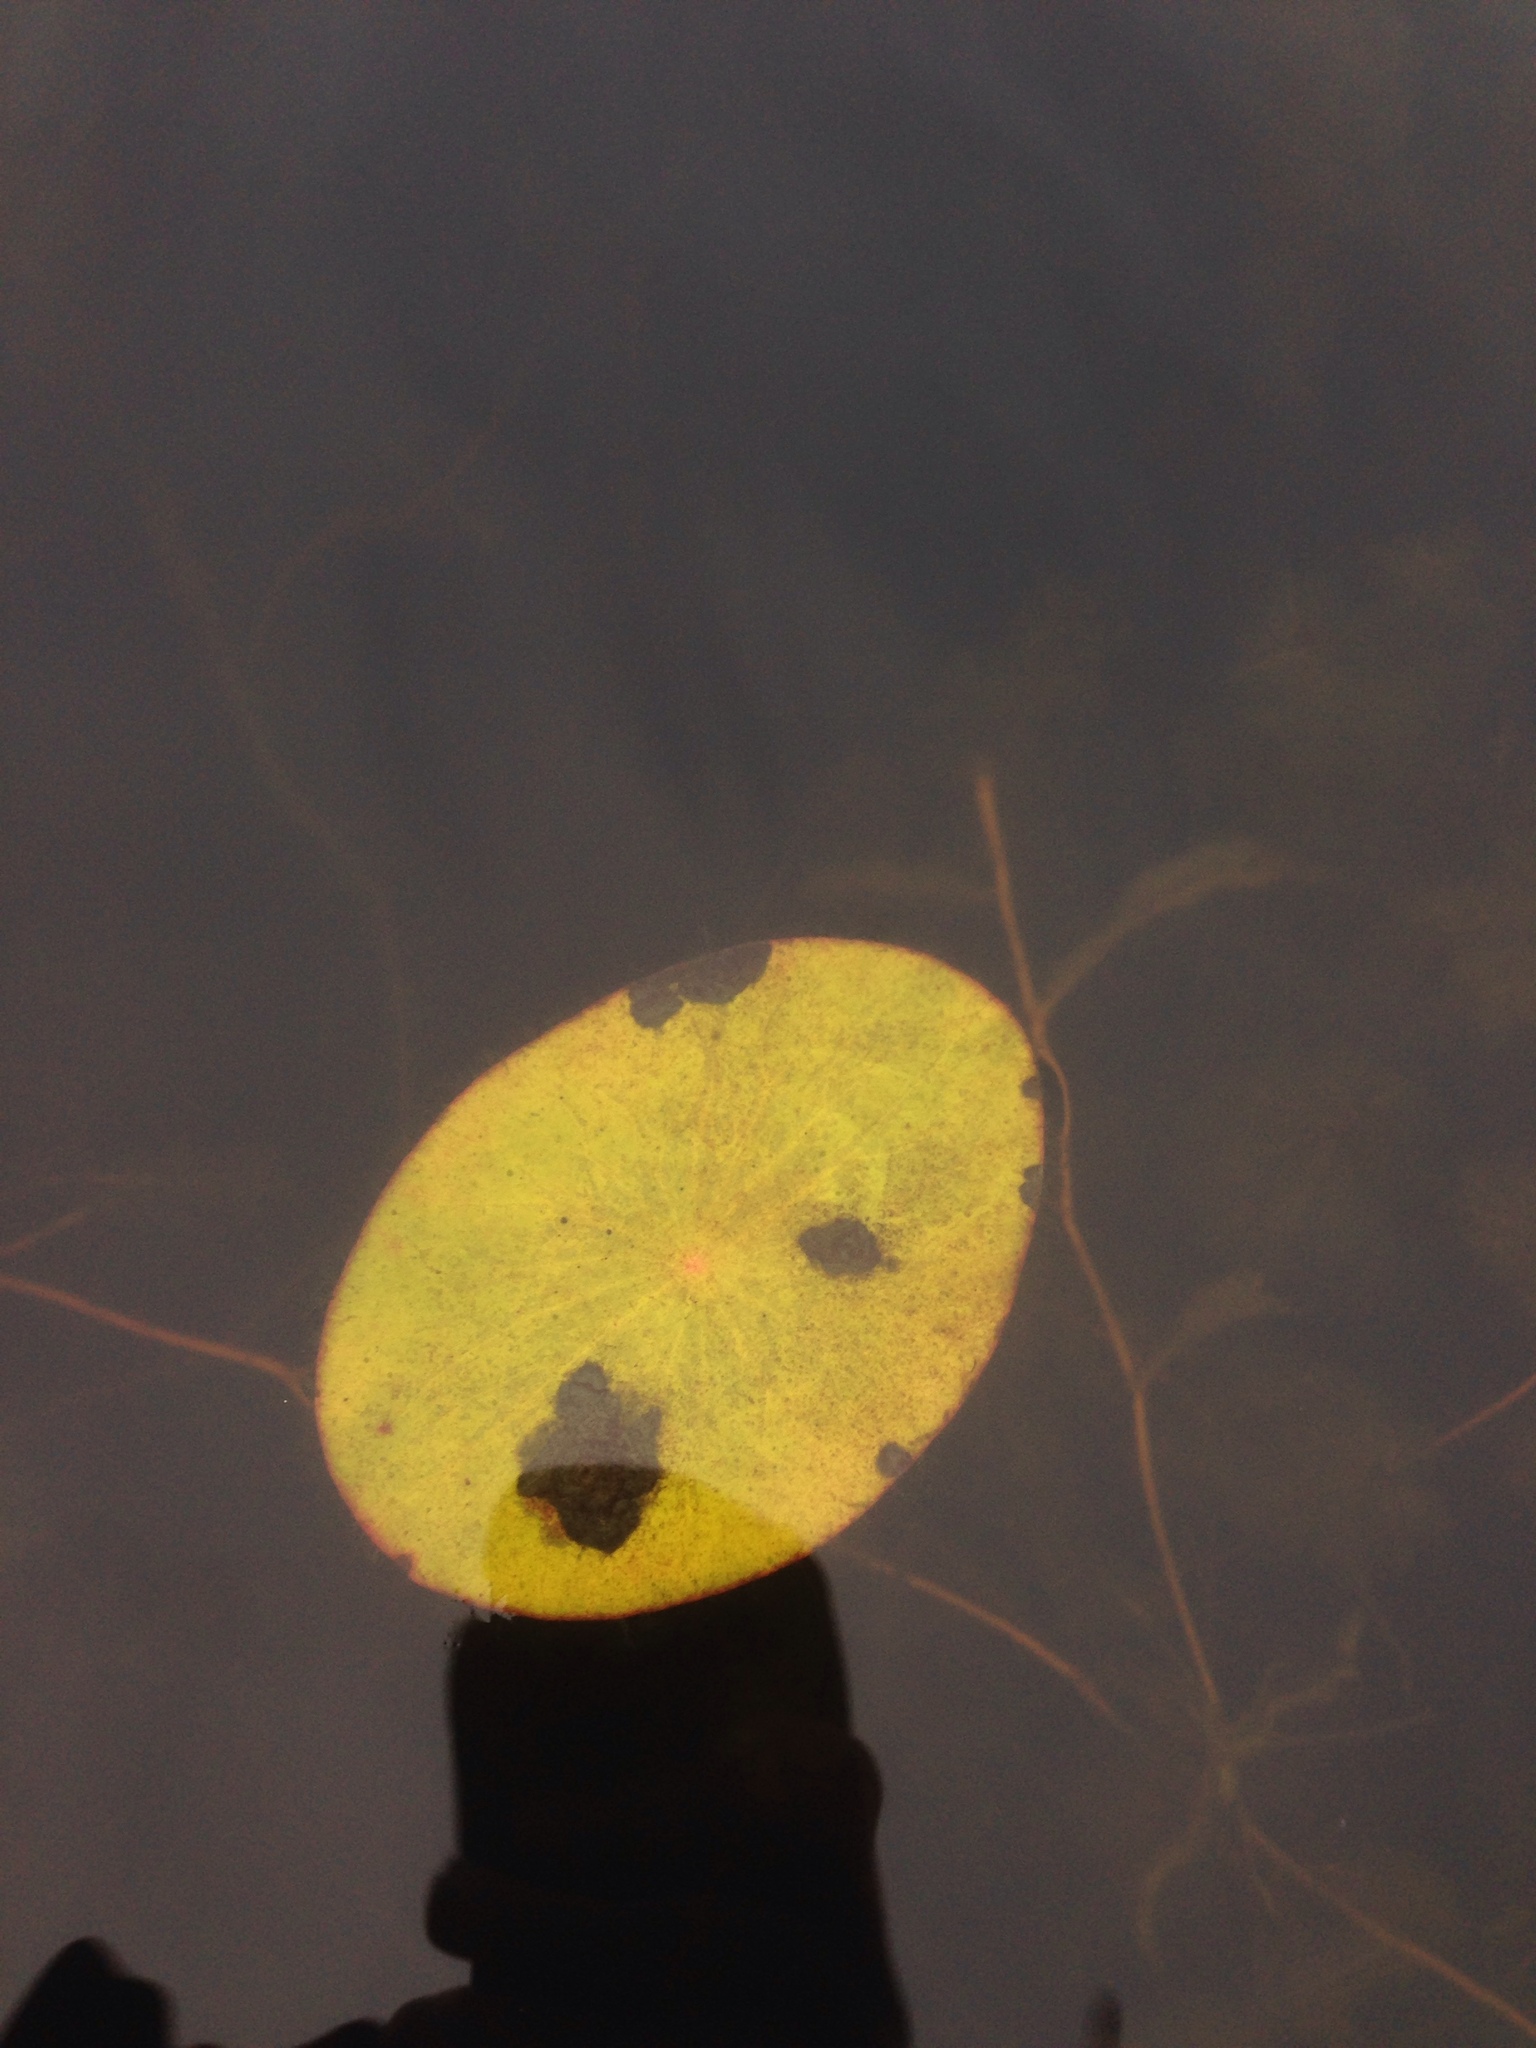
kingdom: Plantae
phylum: Tracheophyta
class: Magnoliopsida
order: Nymphaeales
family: Cabombaceae
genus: Brasenia
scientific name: Brasenia schreberi
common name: Water-shield
